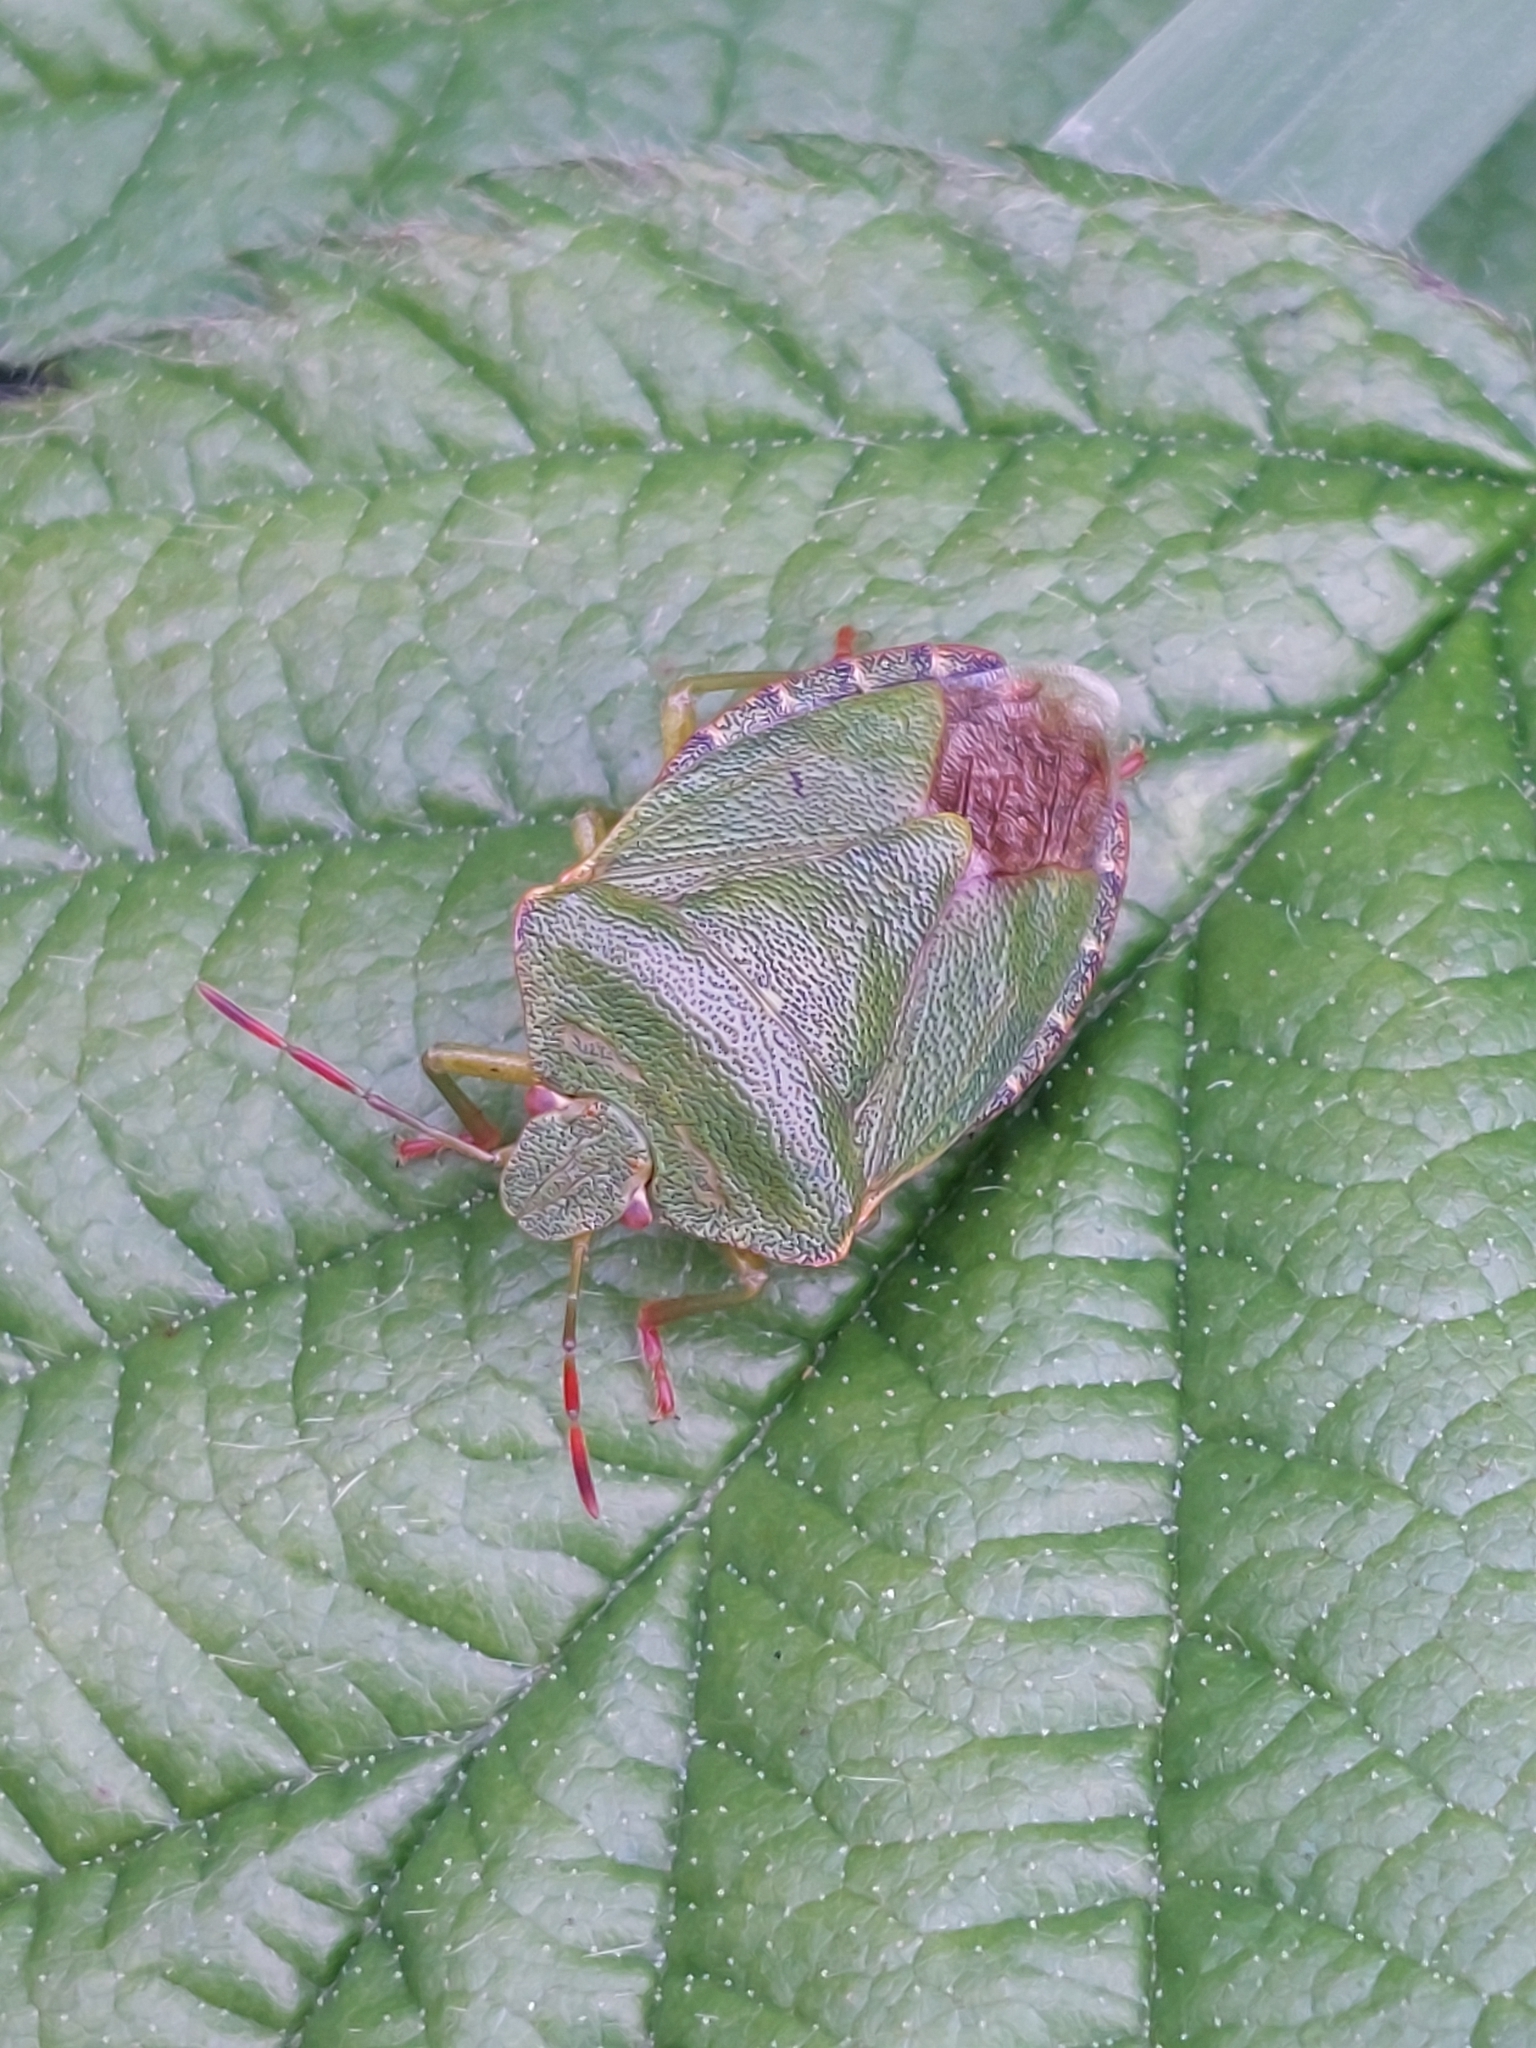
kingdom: Animalia
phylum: Arthropoda
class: Insecta
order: Hemiptera
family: Pentatomidae
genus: Palomena
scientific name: Palomena prasina
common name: Green shieldbug
